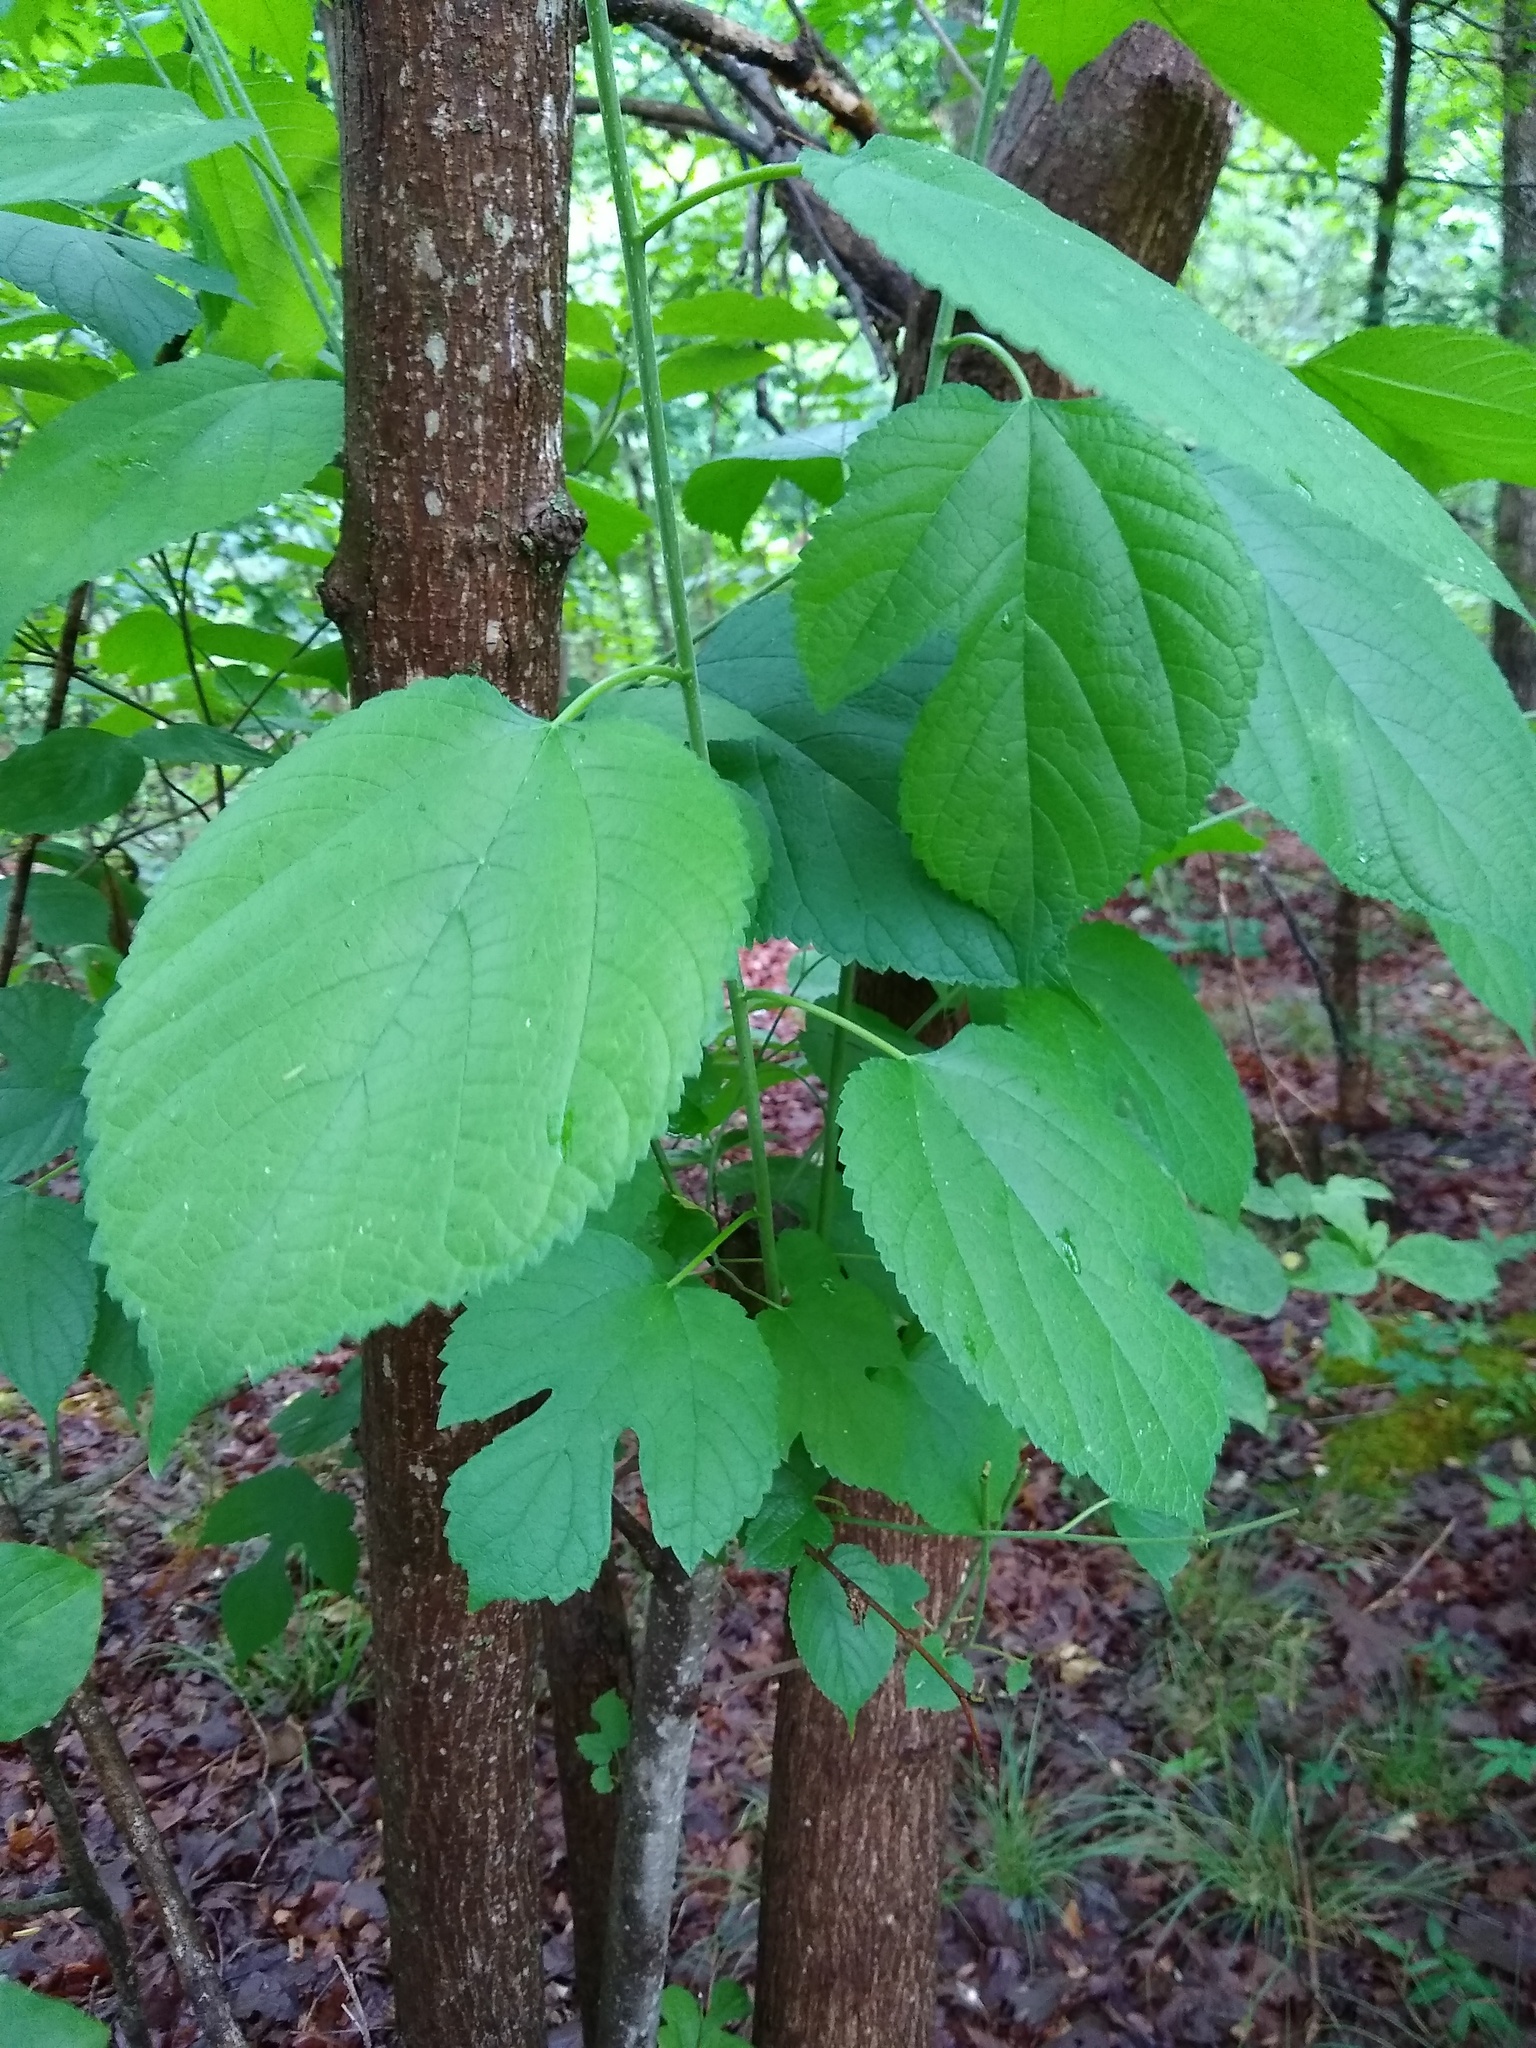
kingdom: Plantae
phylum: Tracheophyta
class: Magnoliopsida
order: Rosales
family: Moraceae
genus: Morus
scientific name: Morus rubra
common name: Red mulberry
